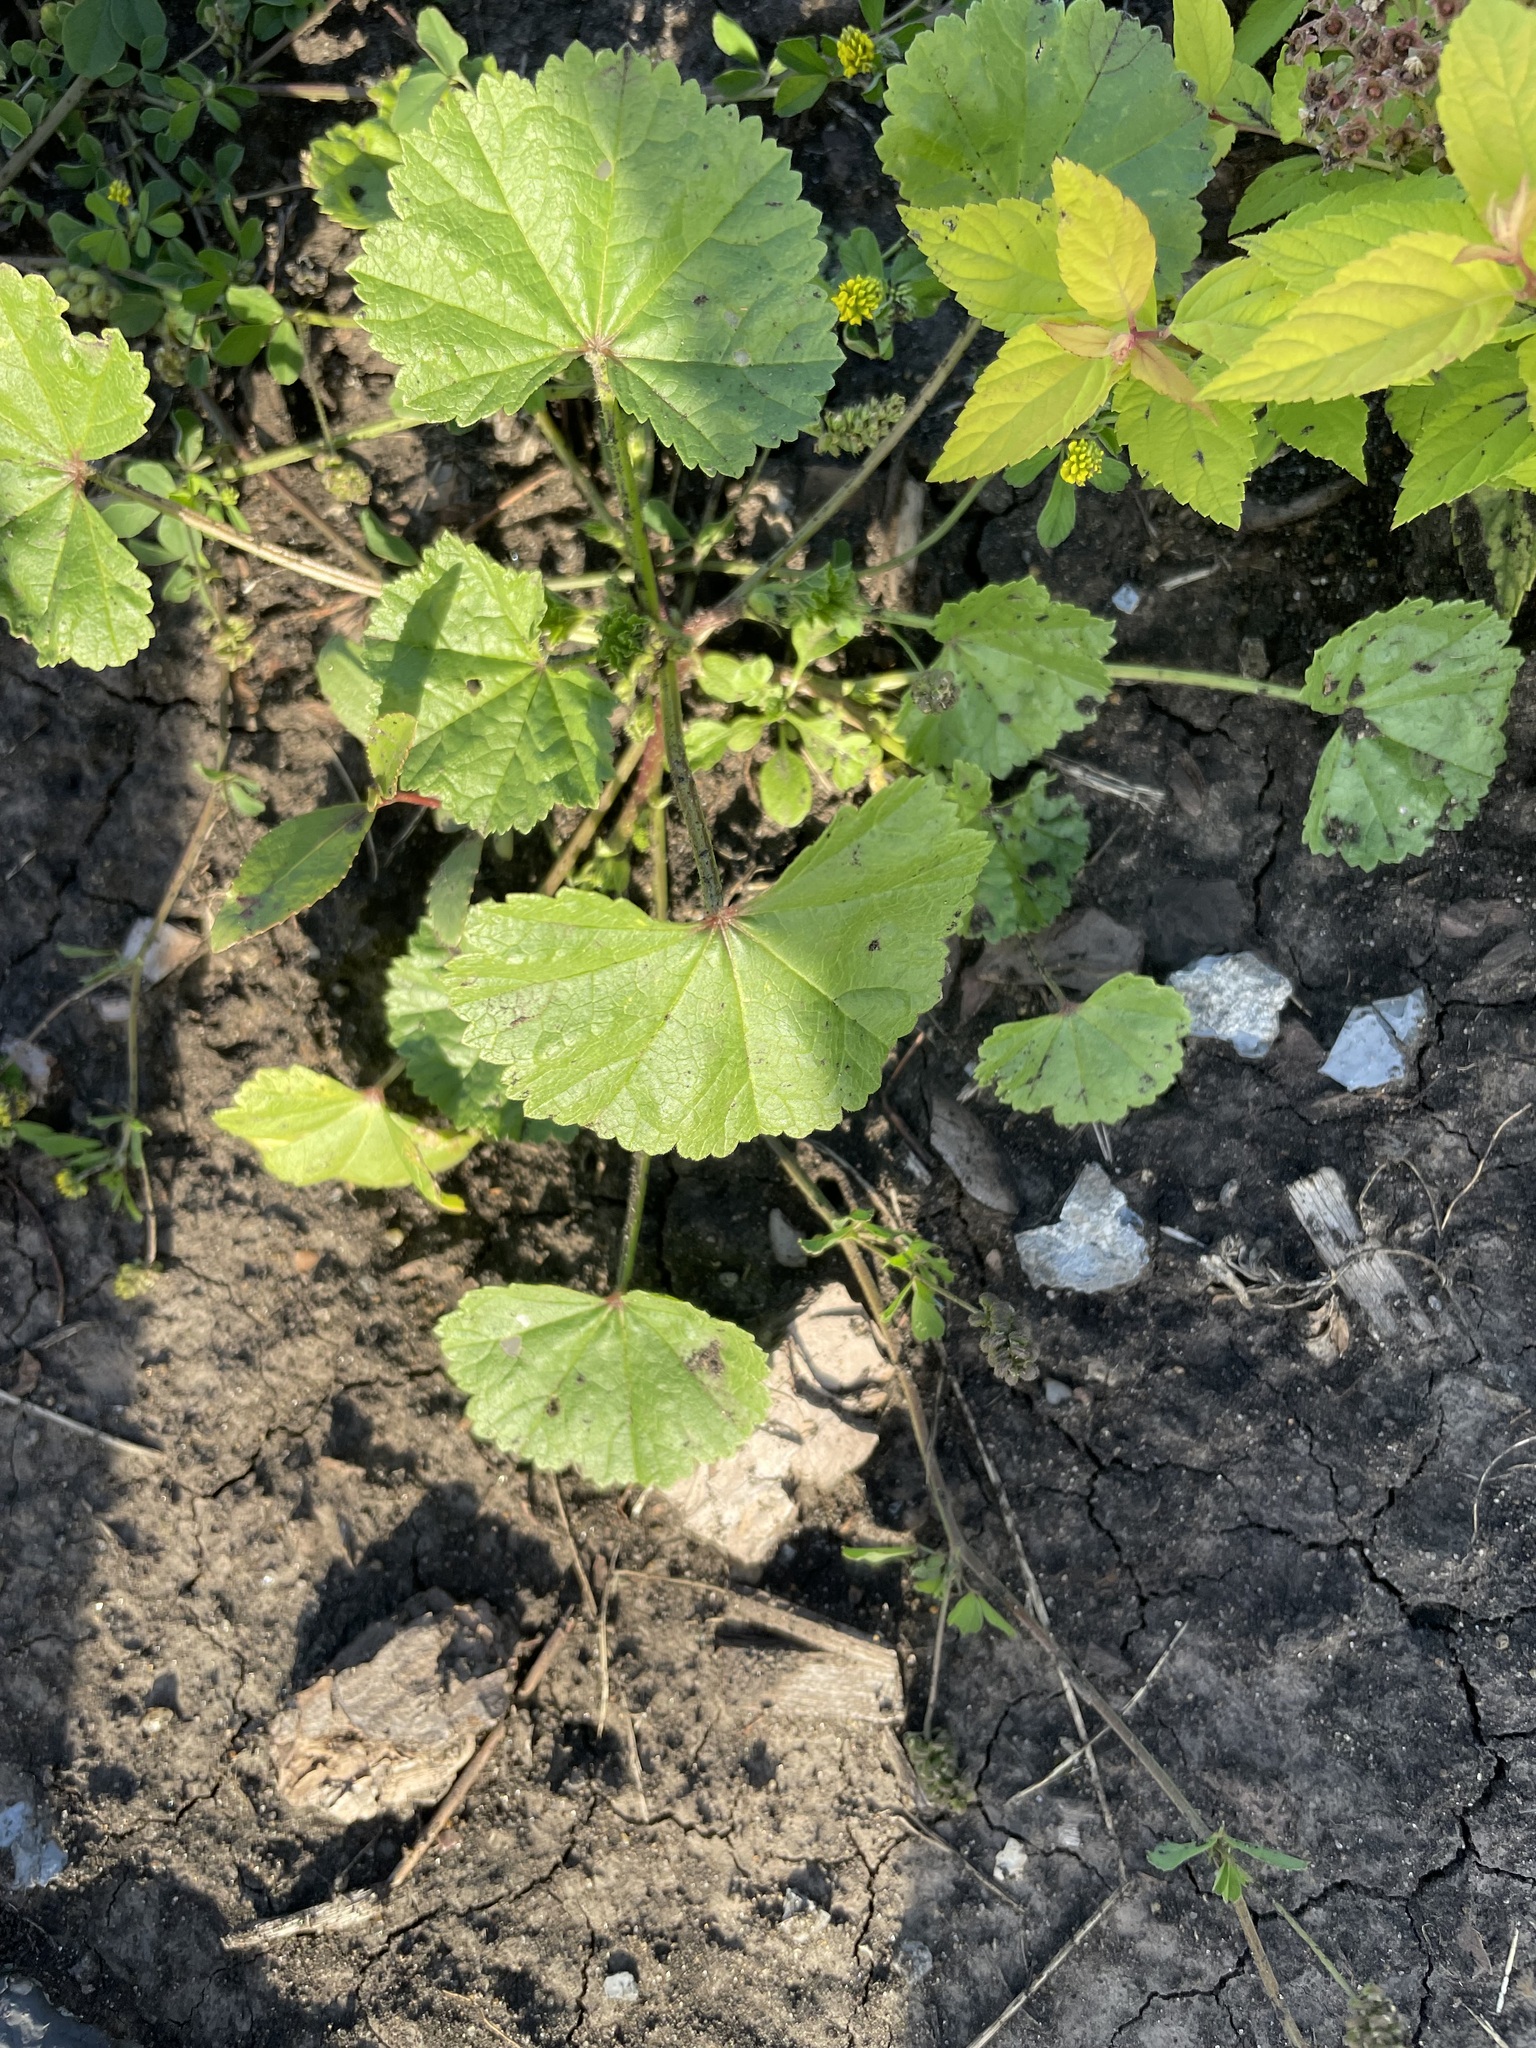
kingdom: Plantae
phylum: Tracheophyta
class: Magnoliopsida
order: Malvales
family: Malvaceae
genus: Malva
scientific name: Malva pusilla
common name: Small mallow
